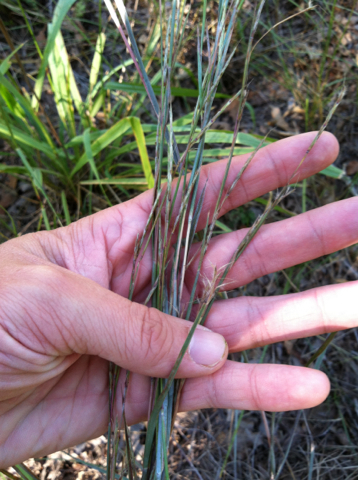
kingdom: Plantae
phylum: Tracheophyta
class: Liliopsida
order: Poales
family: Poaceae
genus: Schizachyrium
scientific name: Schizachyrium scoparium
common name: Little bluestem
